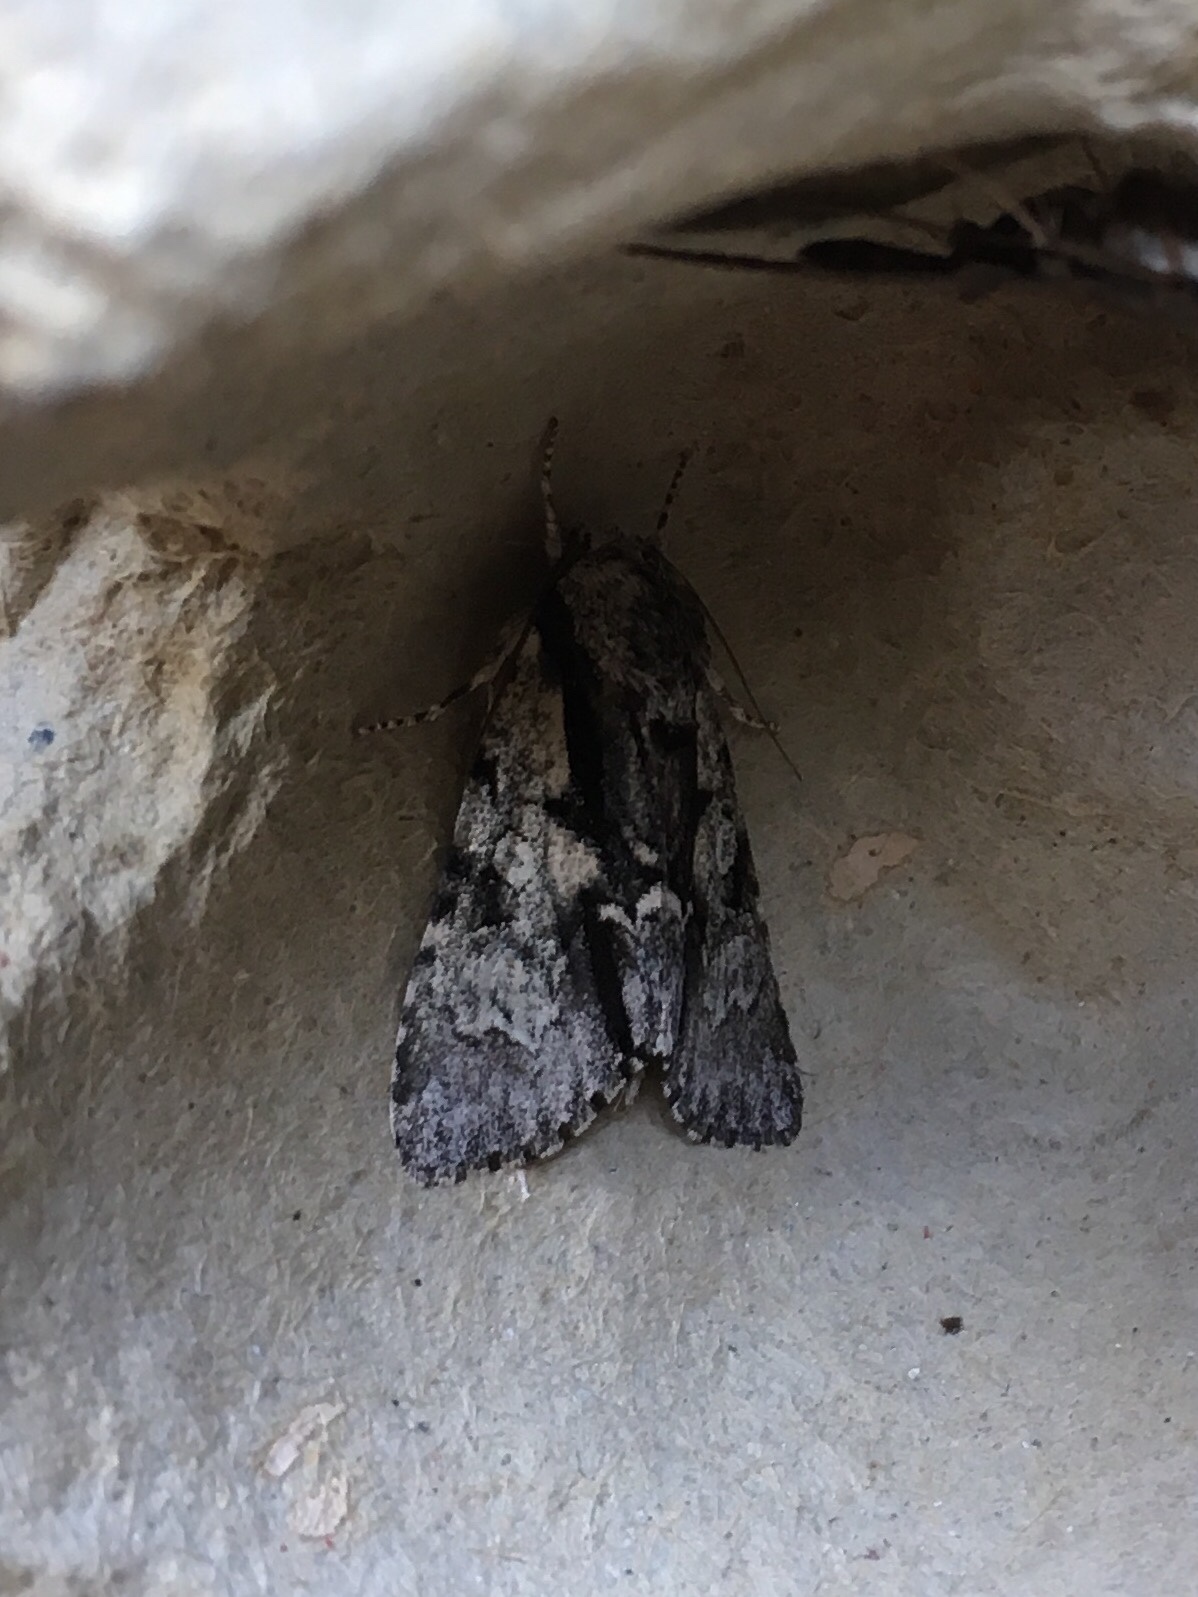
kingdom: Animalia
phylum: Arthropoda
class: Insecta
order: Lepidoptera
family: Noctuidae
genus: Acronicta
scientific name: Acronicta funeralis
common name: Funerary dagger
